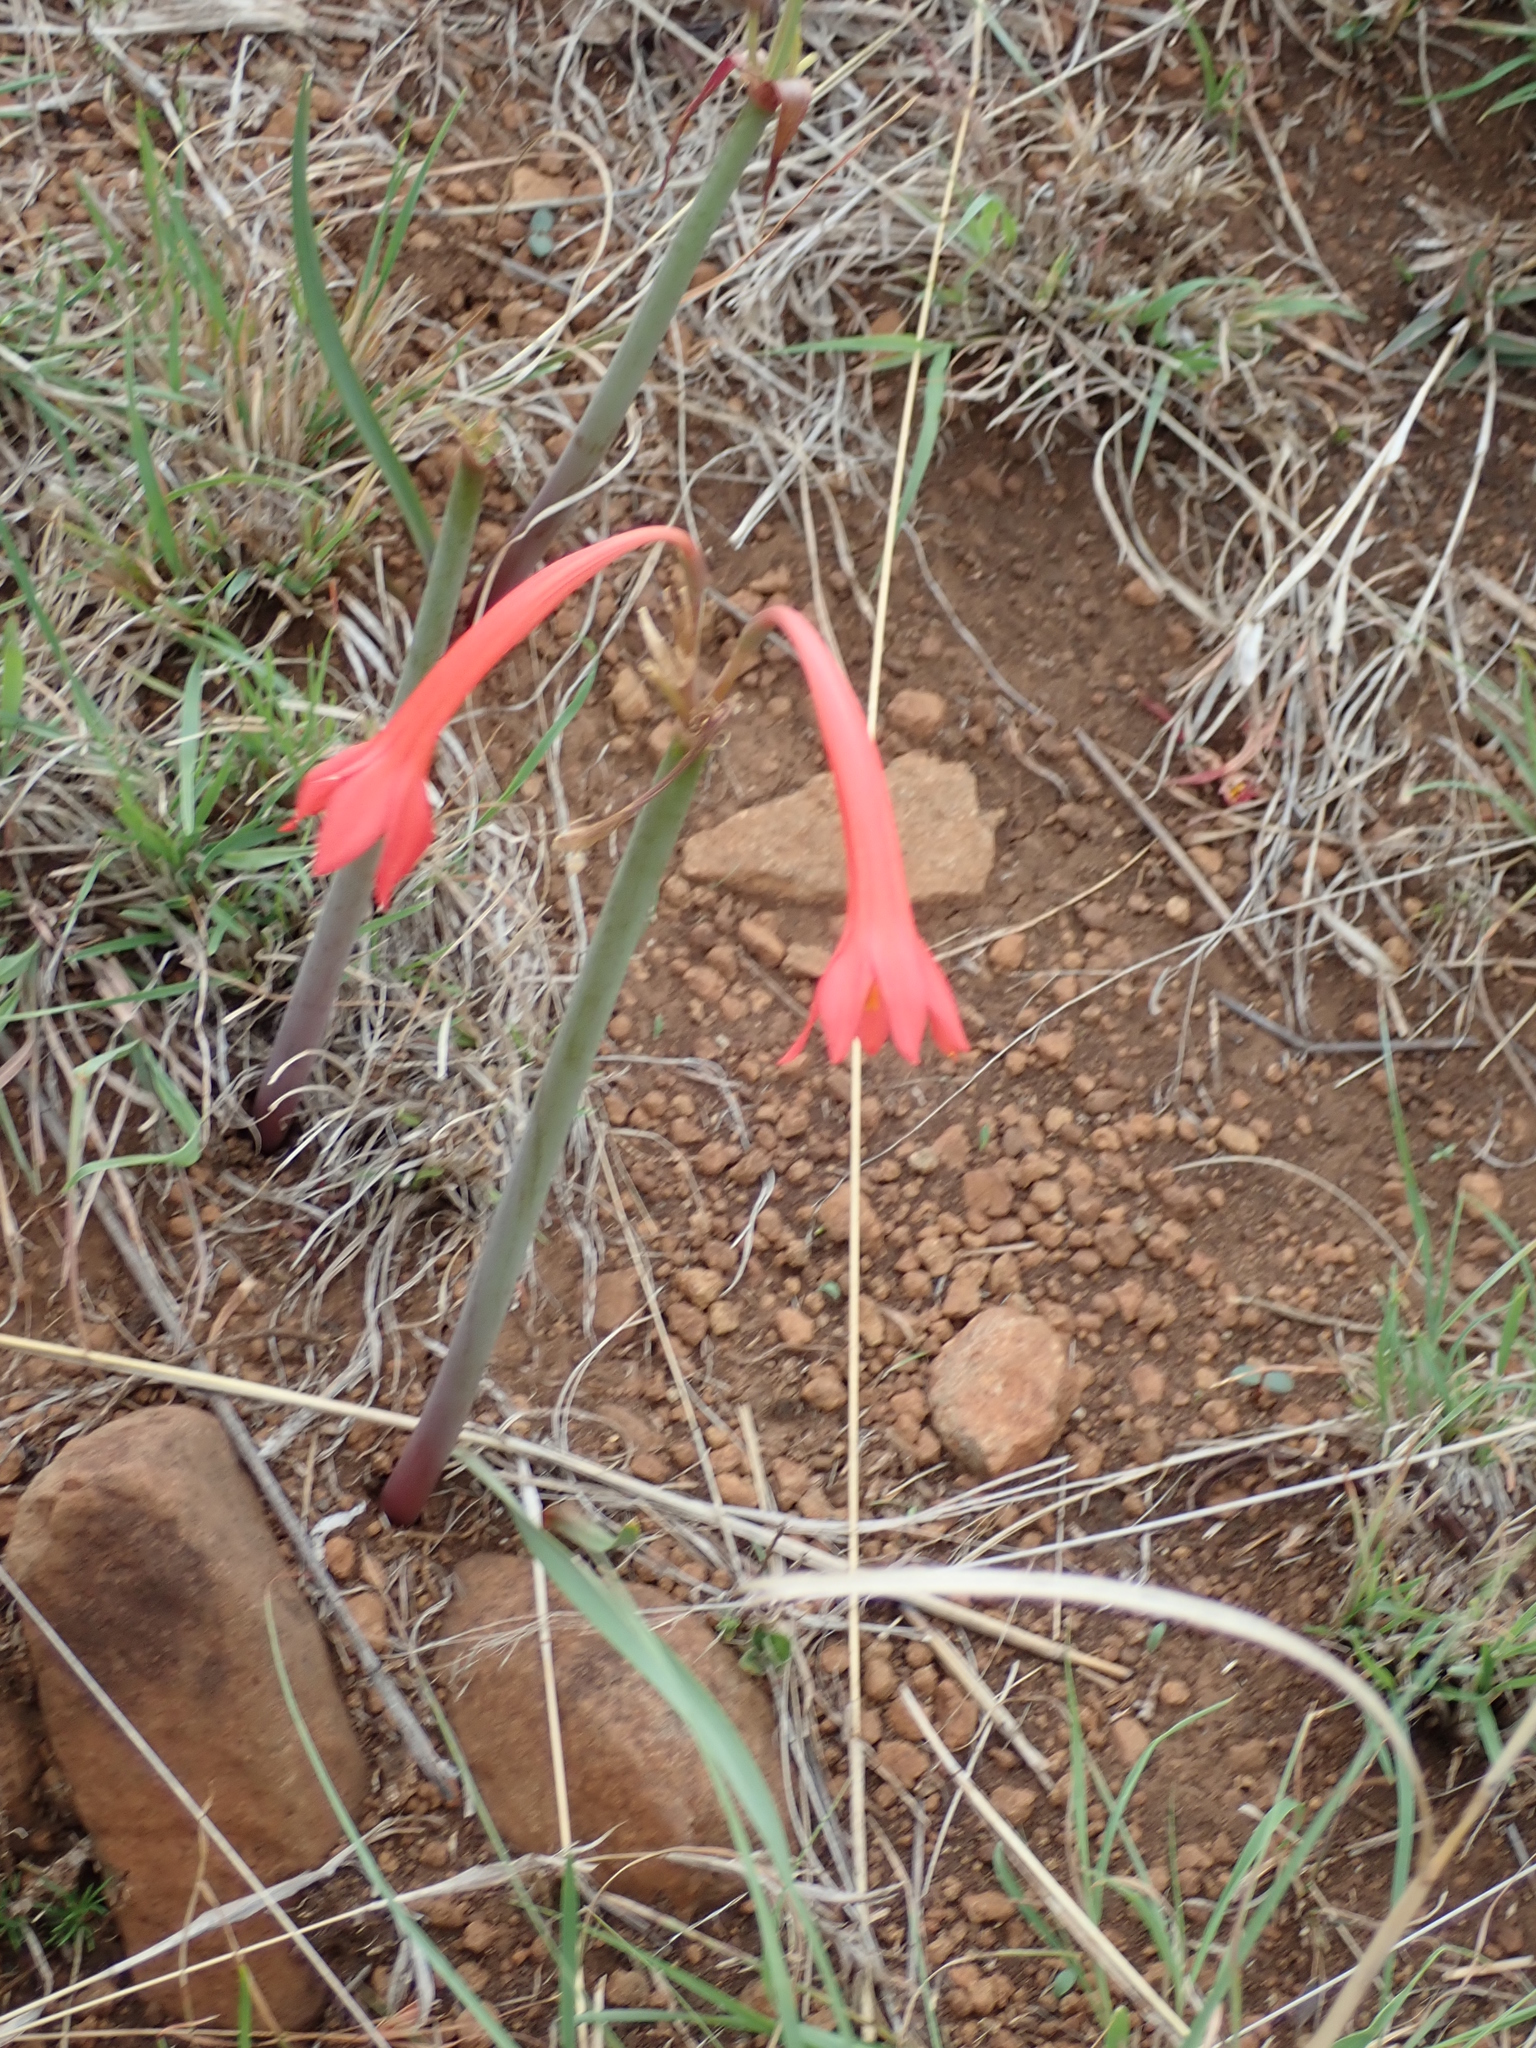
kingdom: Plantae
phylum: Tracheophyta
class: Liliopsida
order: Asparagales
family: Amaryllidaceae
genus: Cyrtanthus
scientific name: Cyrtanthus contractus
